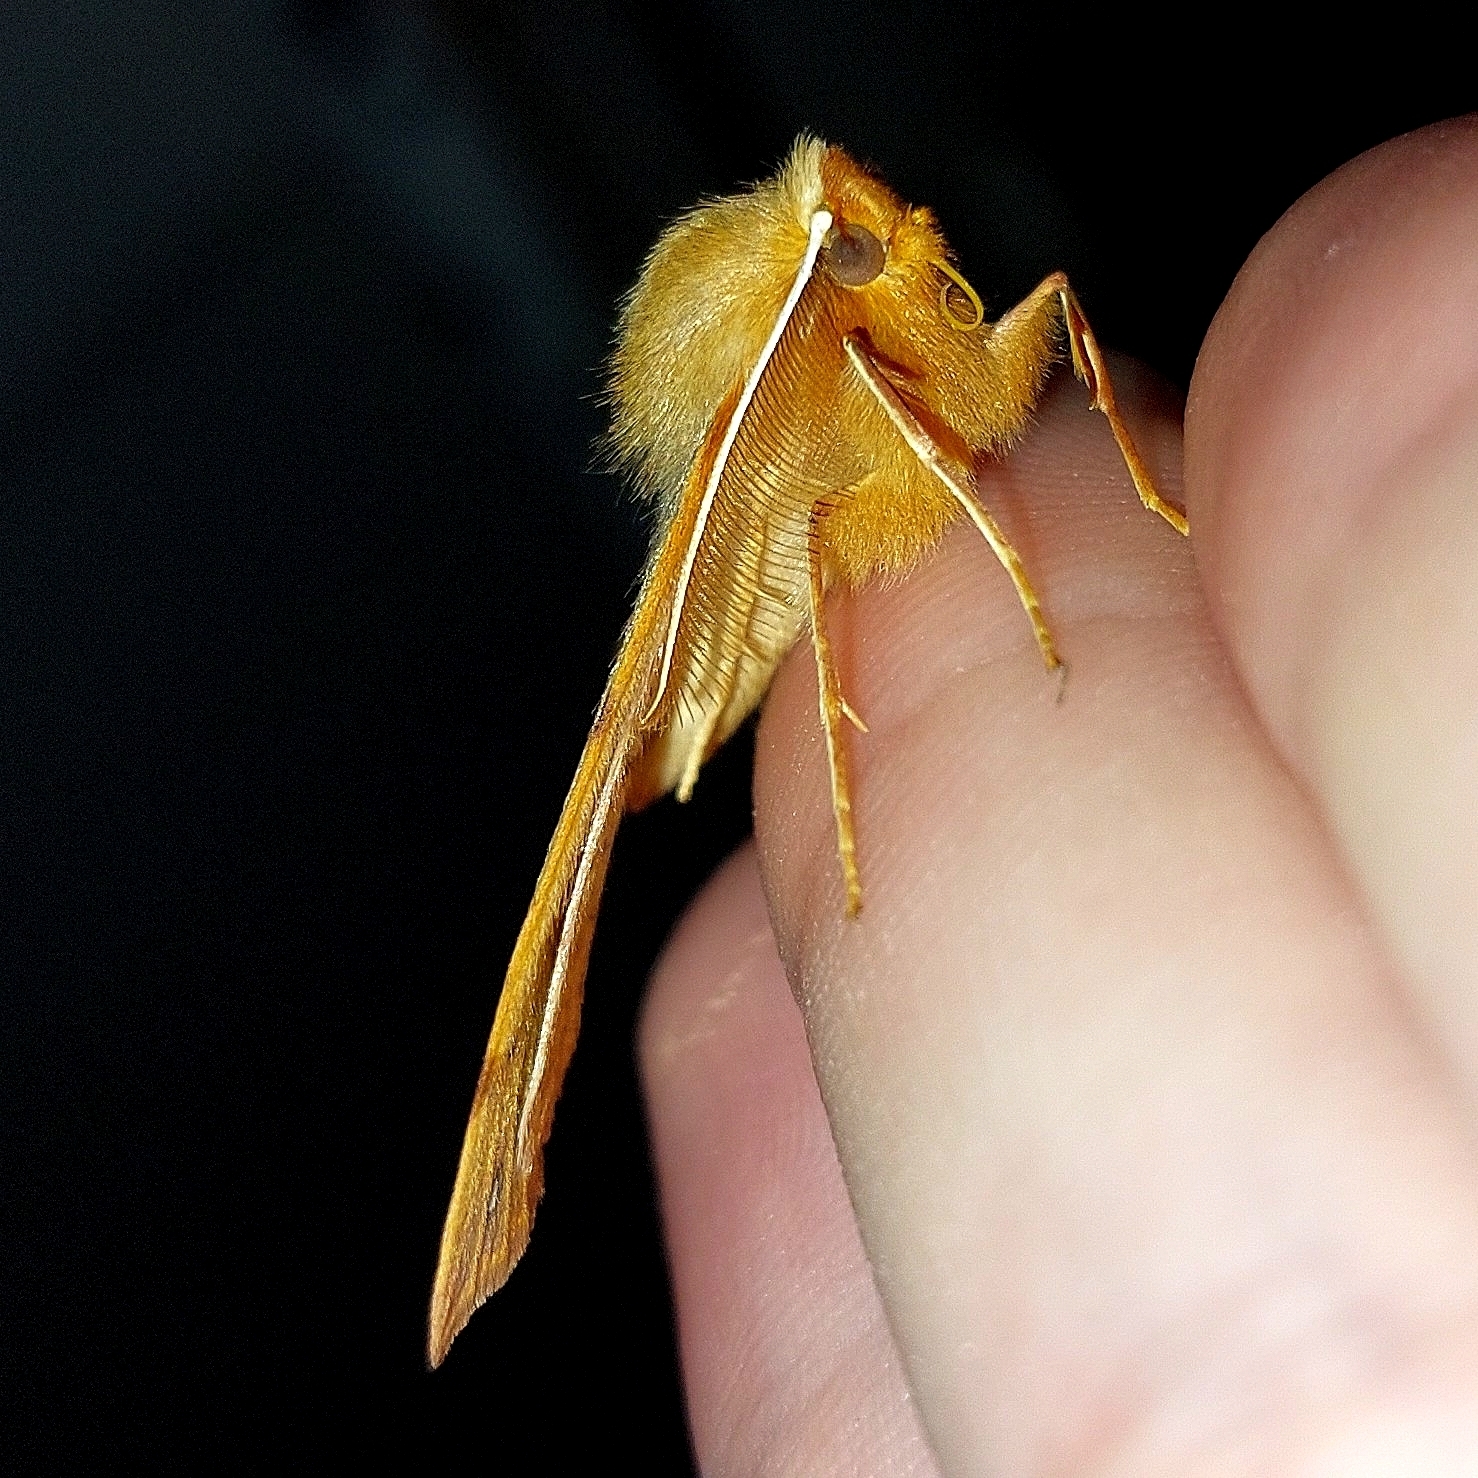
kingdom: Animalia
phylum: Arthropoda
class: Insecta
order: Lepidoptera
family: Geometridae
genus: Colotois
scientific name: Colotois pennaria
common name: Feathered thorn
